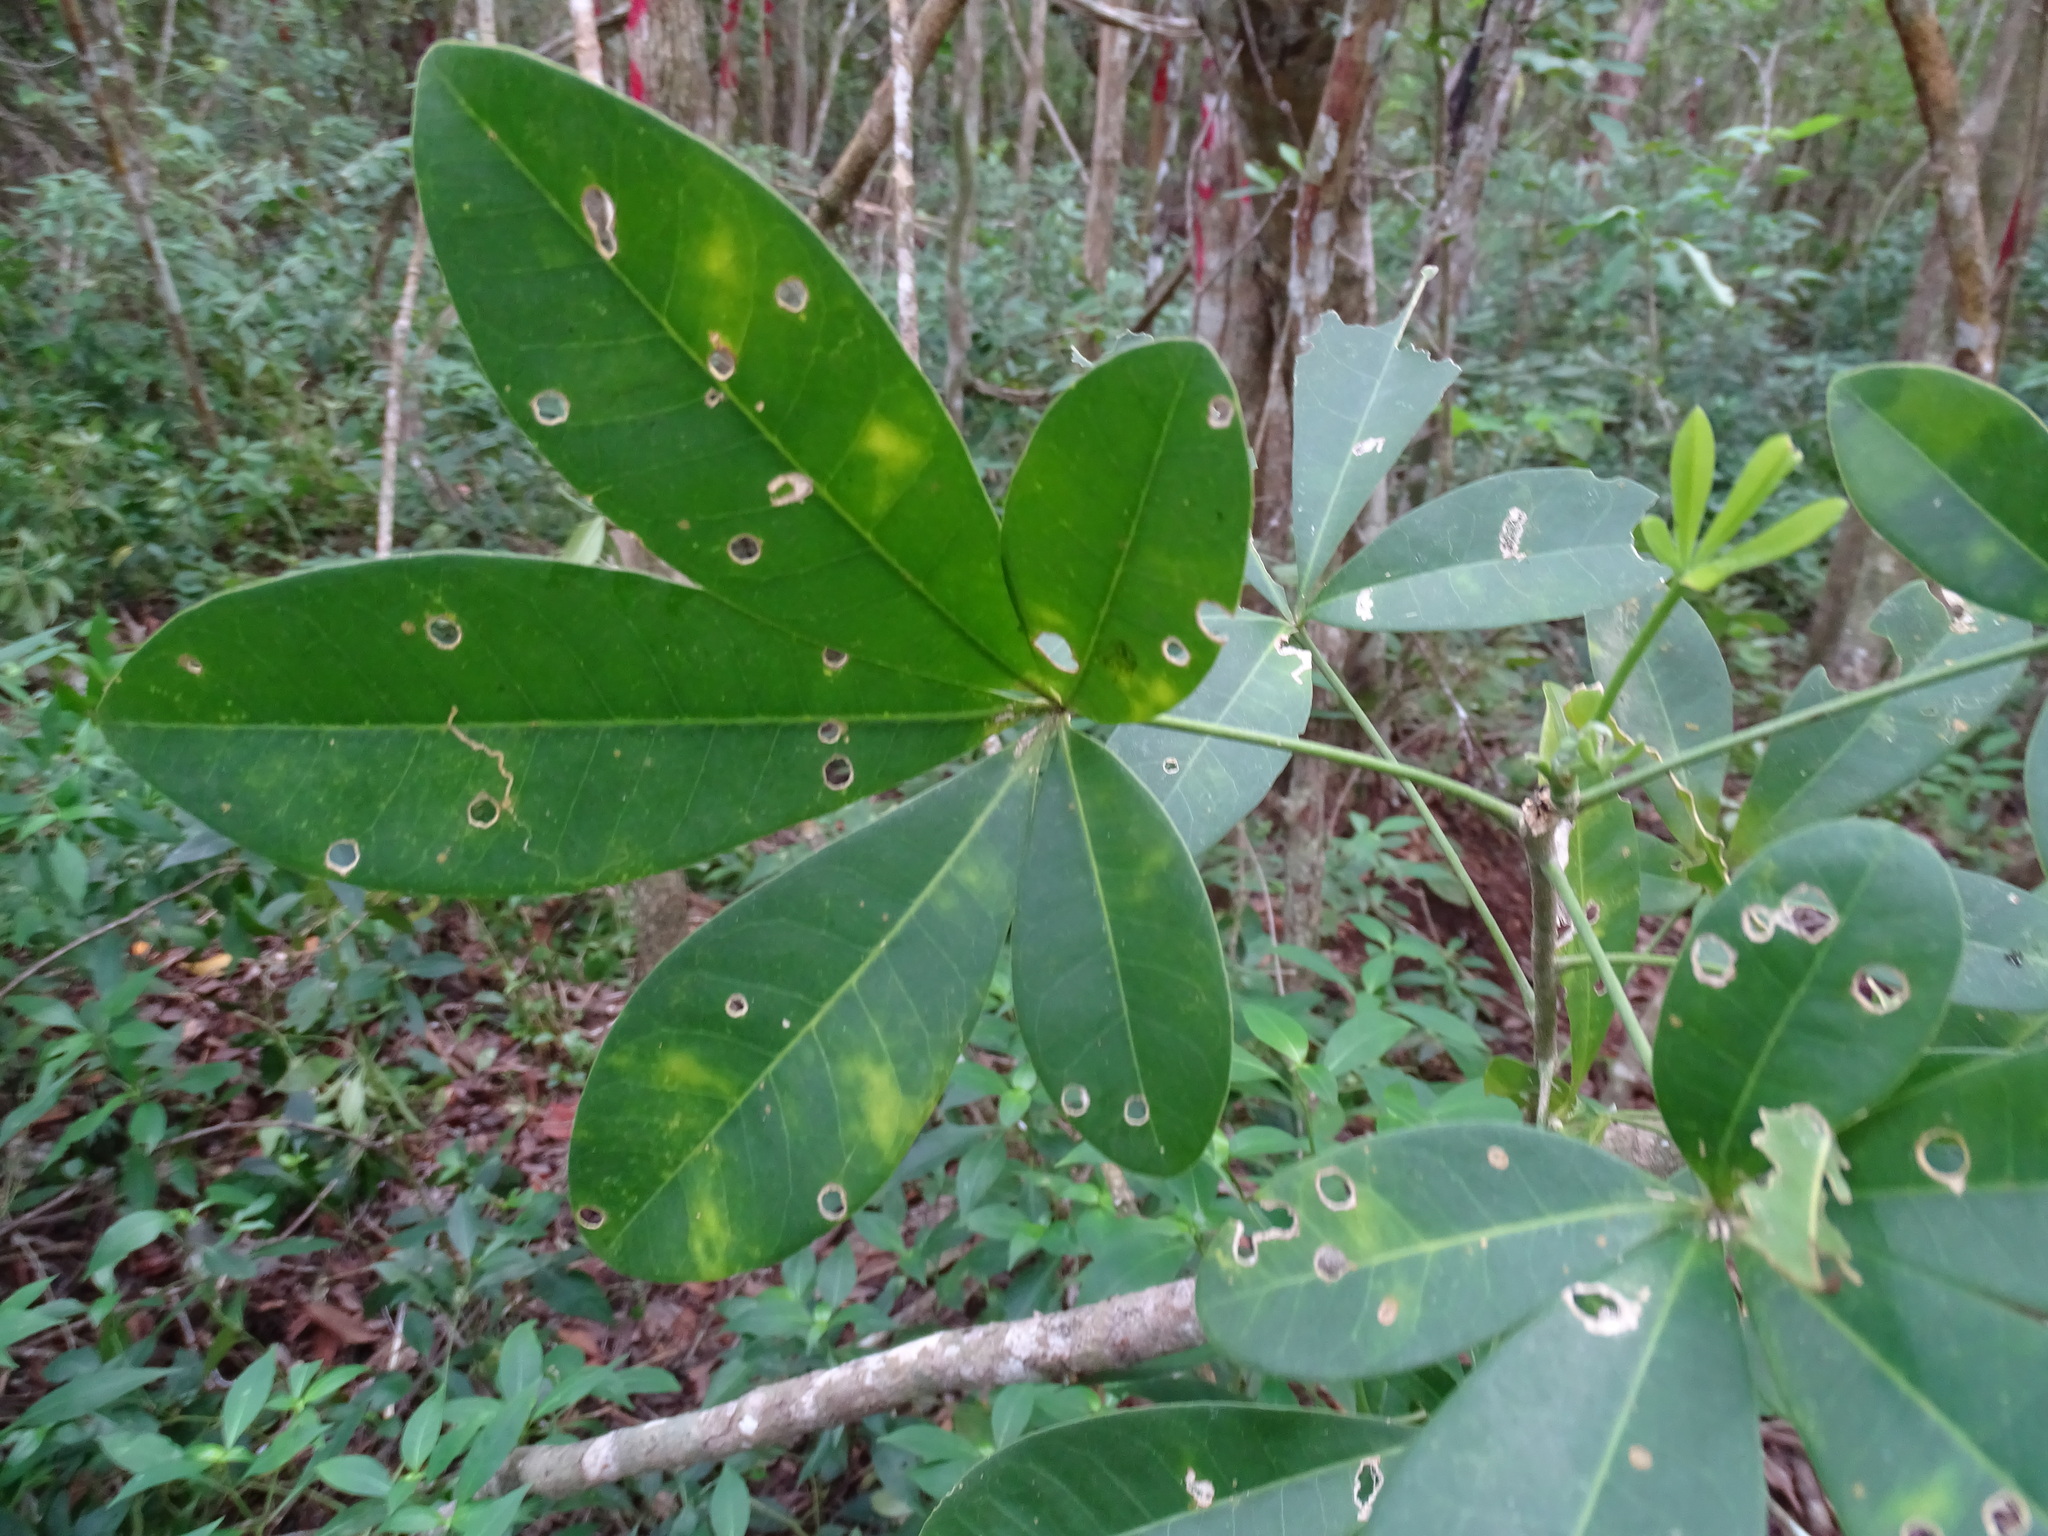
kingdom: Plantae
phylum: Tracheophyta
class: Magnoliopsida
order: Sapindales
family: Rutaceae
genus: Esenbeckia
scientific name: Esenbeckia pentaphylla
